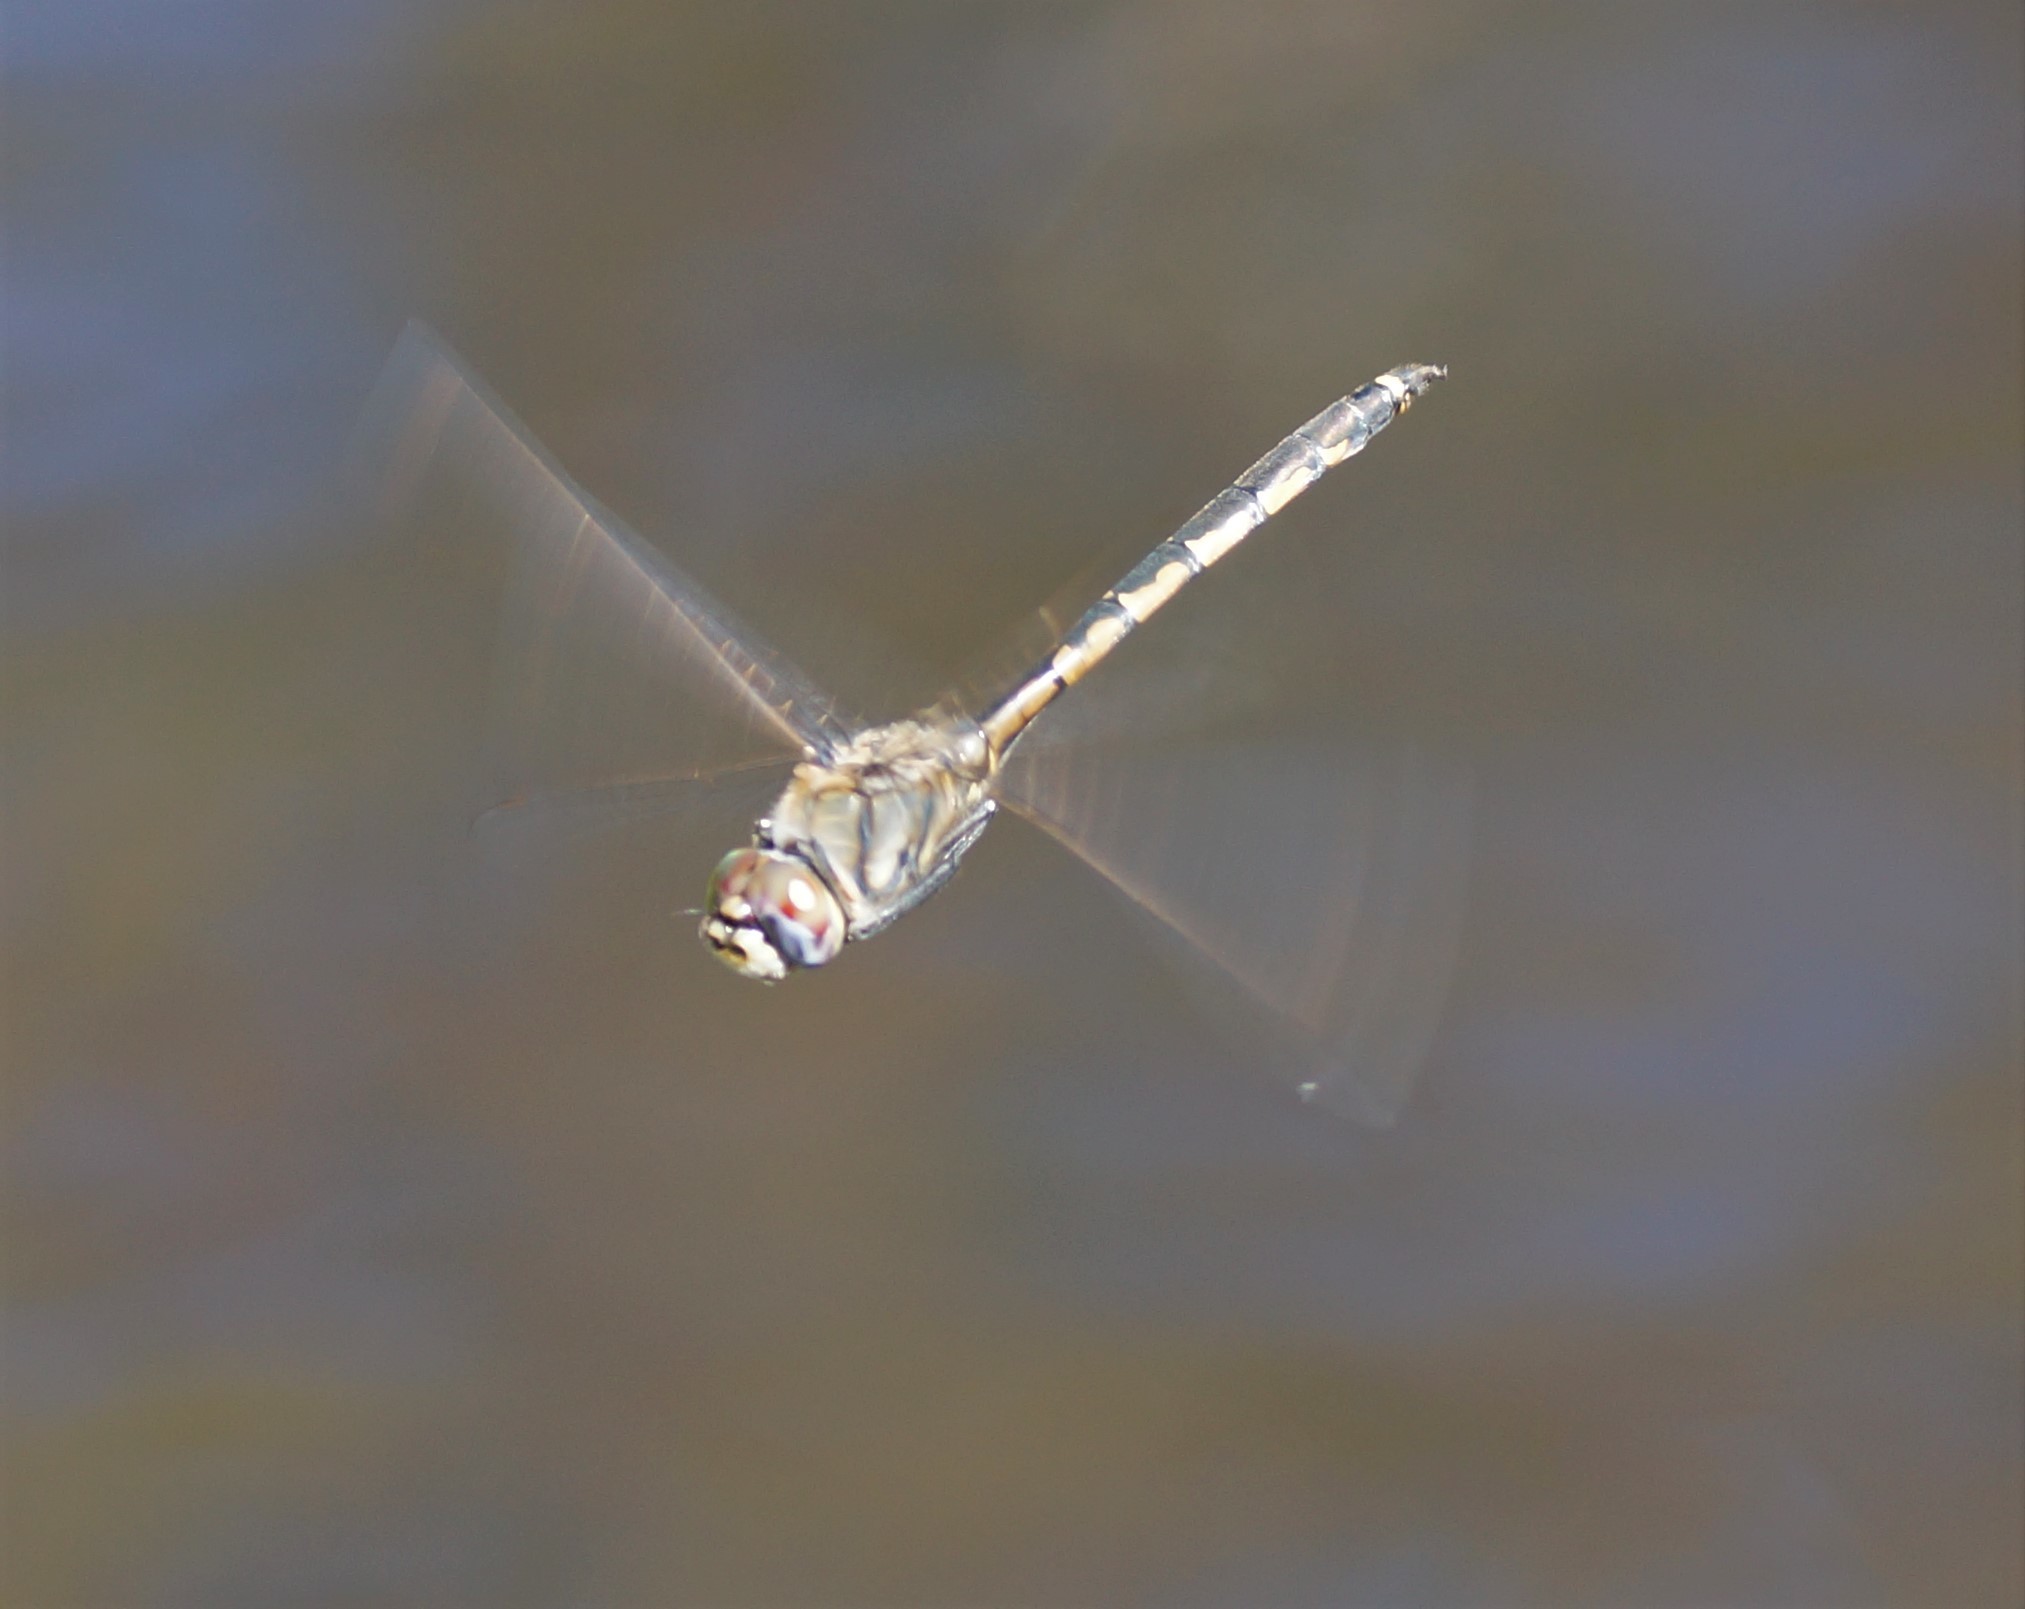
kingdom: Animalia
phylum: Arthropoda
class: Insecta
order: Odonata
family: Corduliidae
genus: Hemicordulia
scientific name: Hemicordulia tau
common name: Tau emerald
